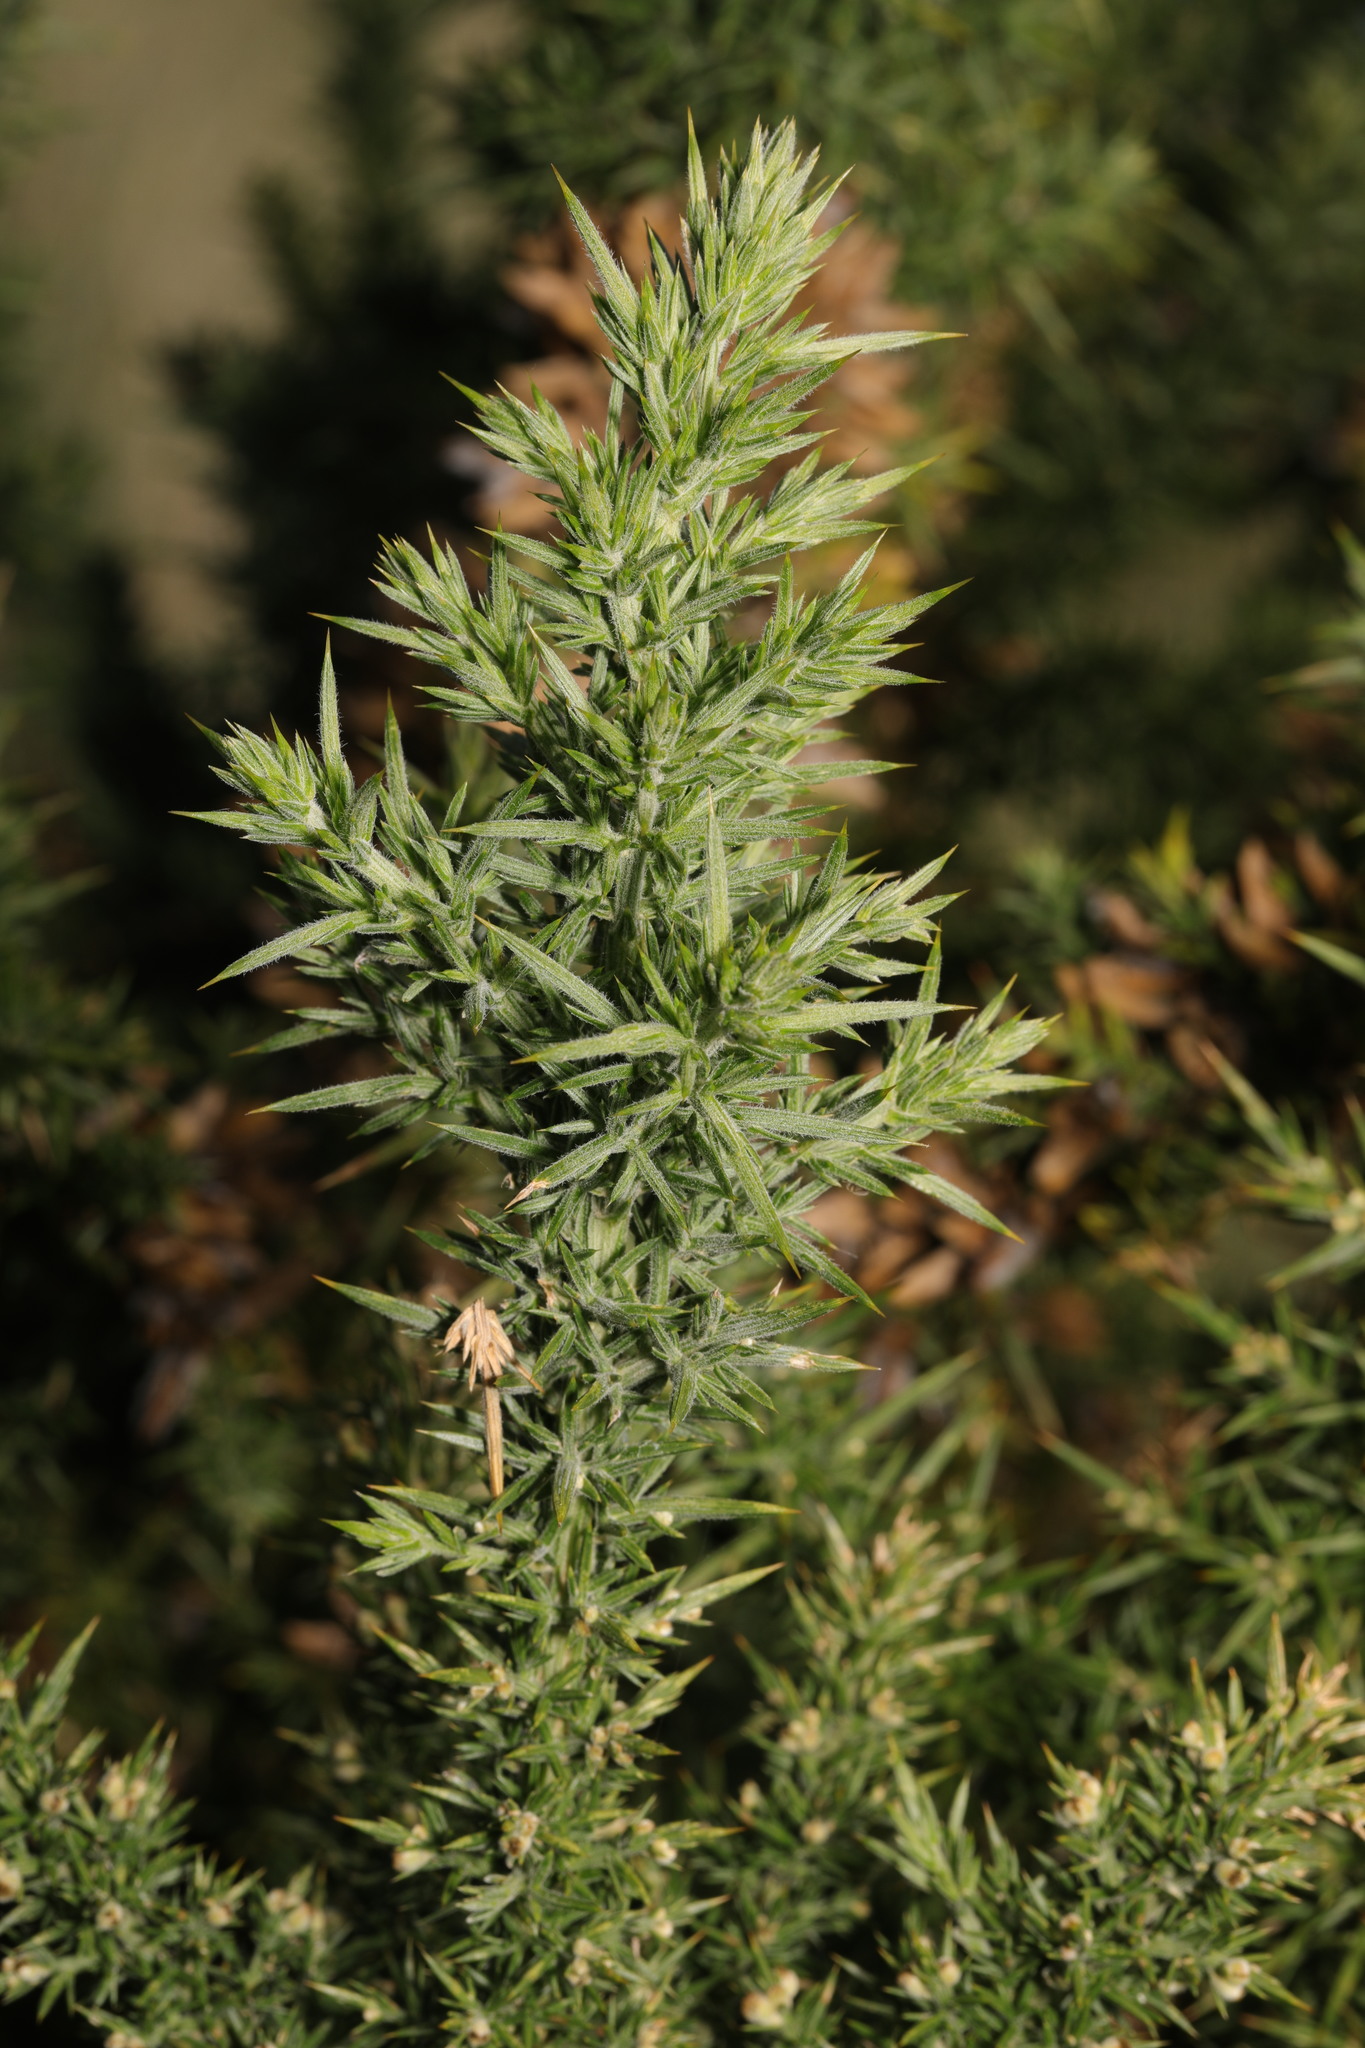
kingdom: Plantae
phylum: Tracheophyta
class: Magnoliopsida
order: Fabales
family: Fabaceae
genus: Ulex
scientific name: Ulex europaeus
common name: Common gorse
